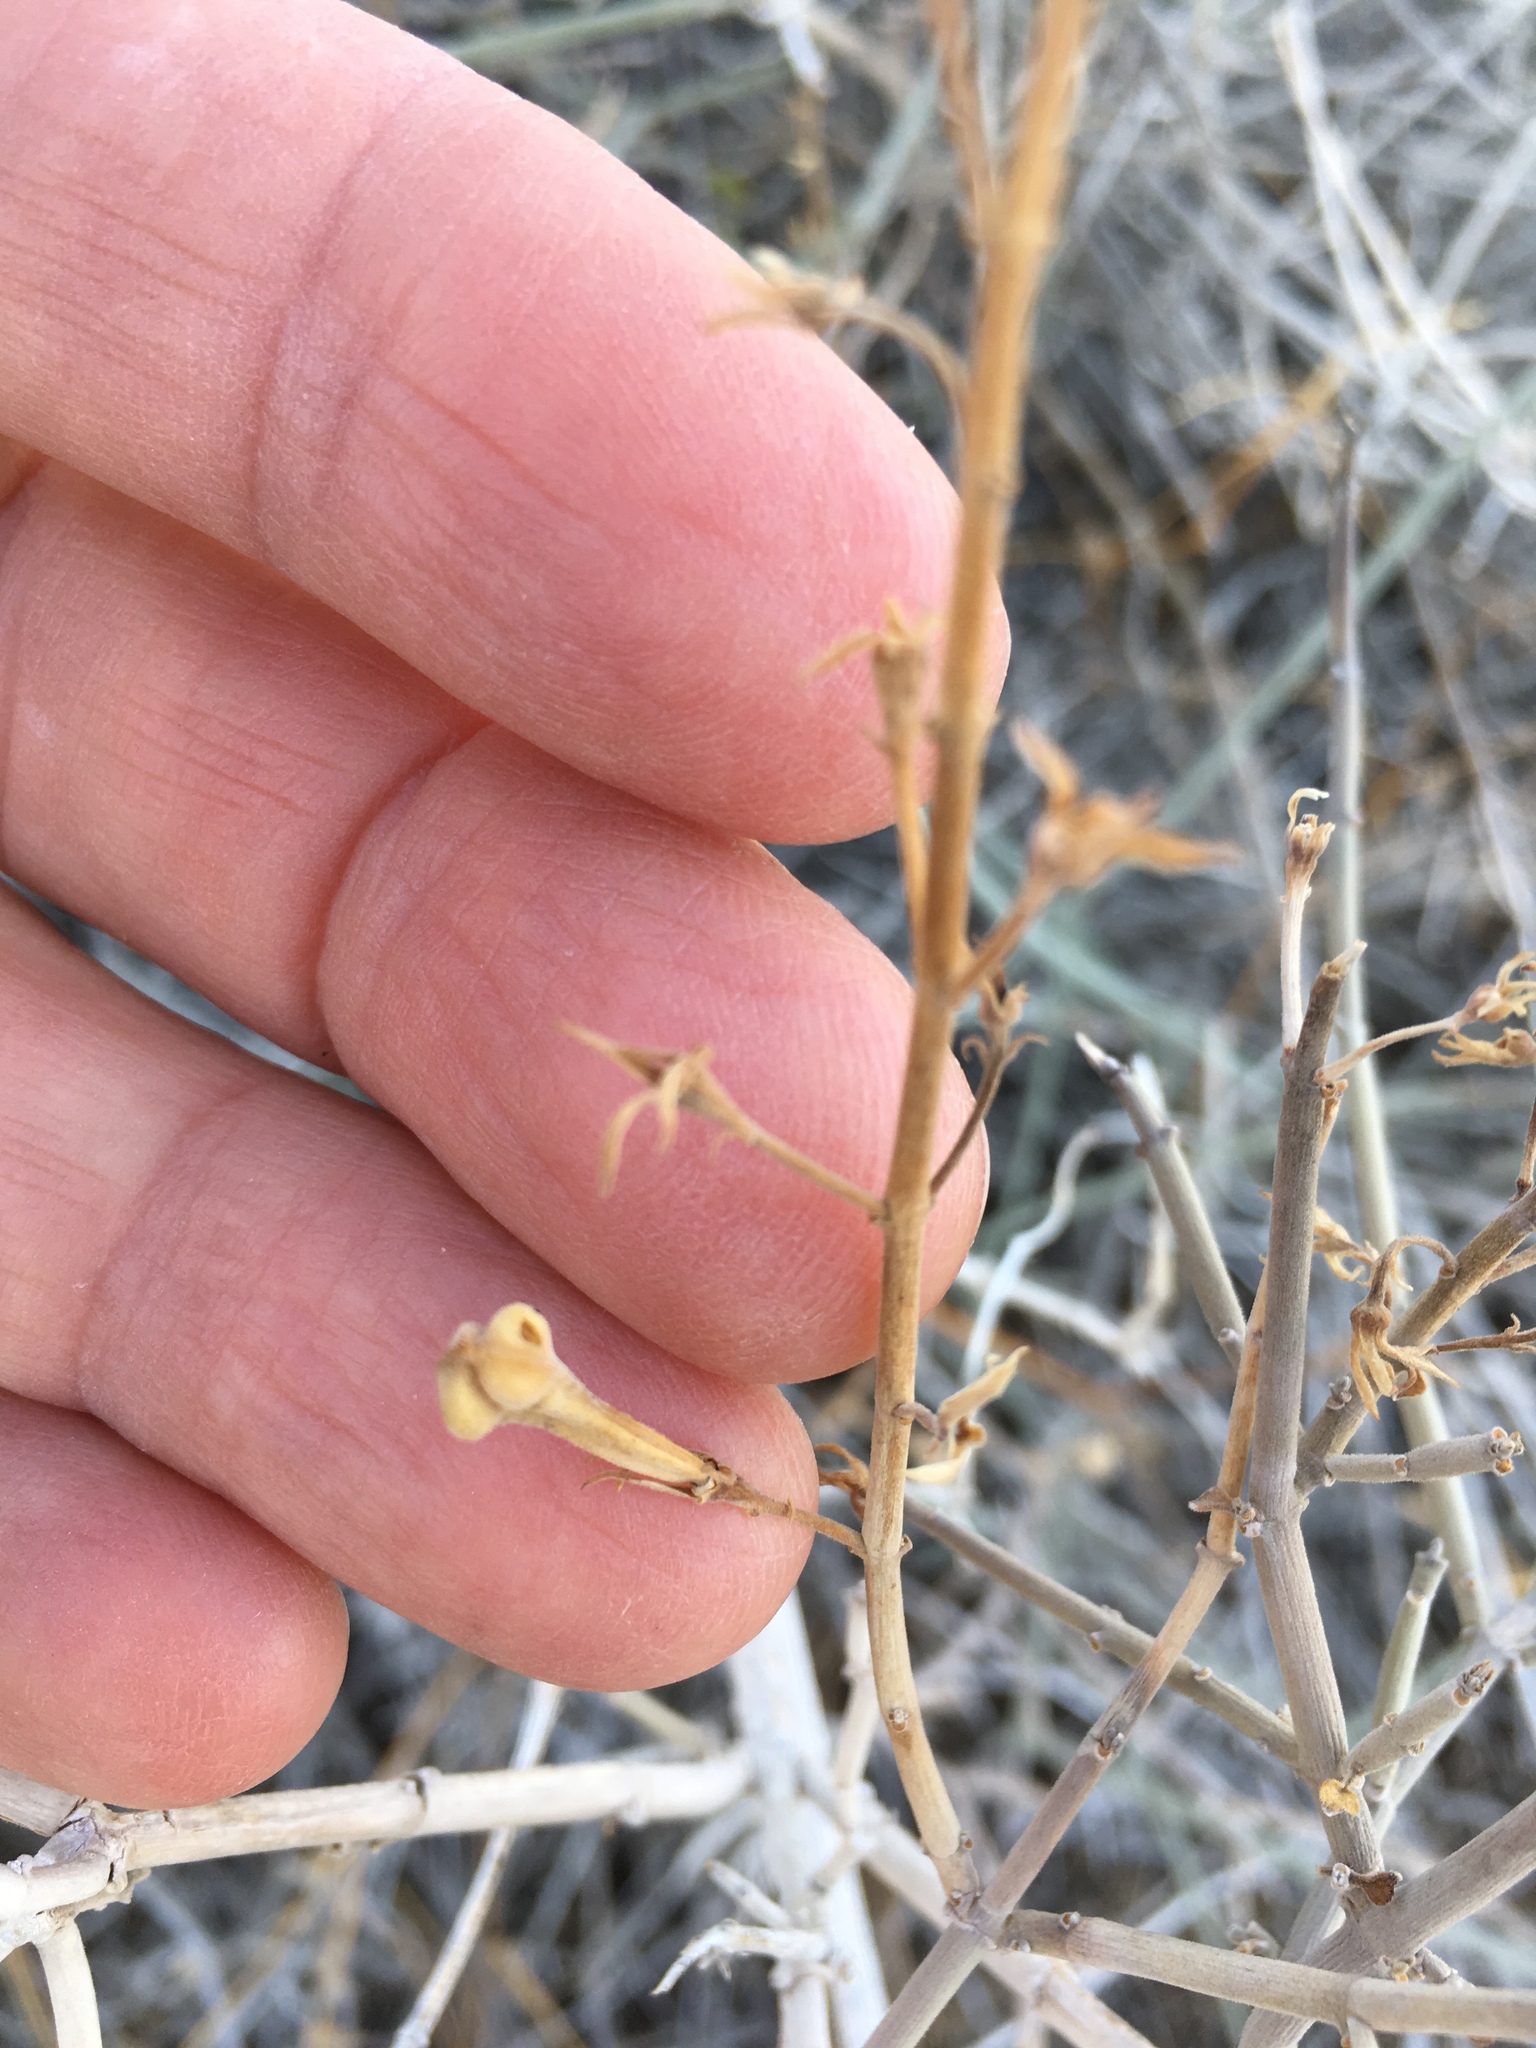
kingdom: Plantae
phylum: Tracheophyta
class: Magnoliopsida
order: Lamiales
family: Acanthaceae
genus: Justicia
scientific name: Justicia californica
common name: Chuparosa-honeysuckle
